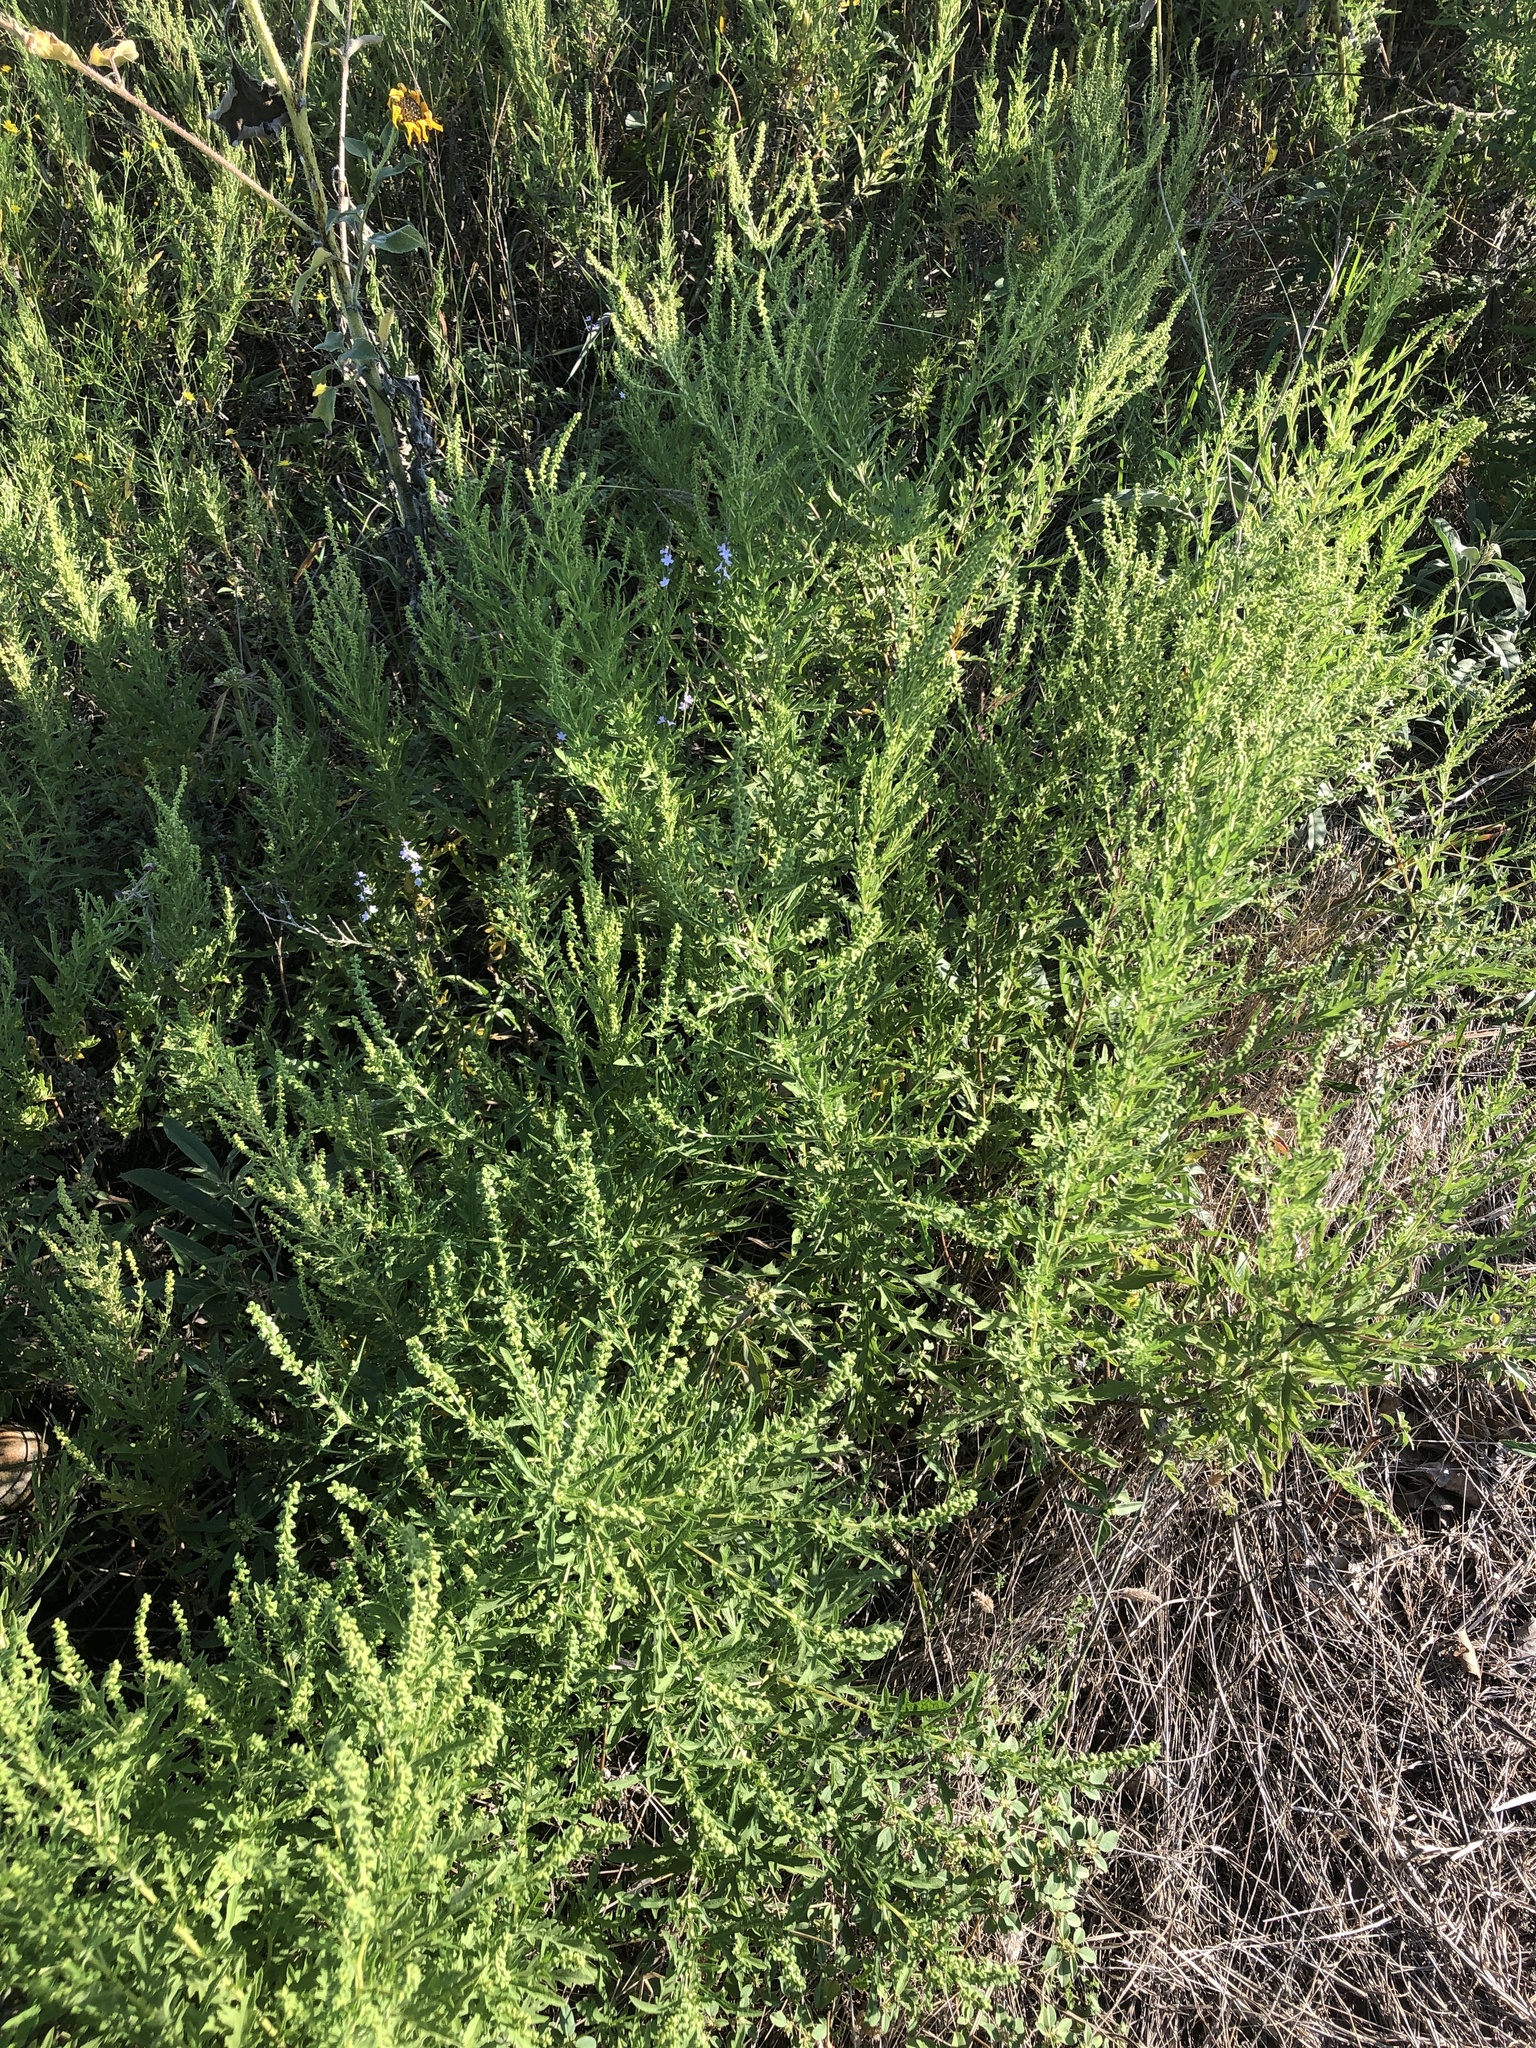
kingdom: Plantae
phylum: Tracheophyta
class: Magnoliopsida
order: Asterales
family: Asteraceae
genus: Ambrosia
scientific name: Ambrosia psilostachya
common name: Perennial ragweed
